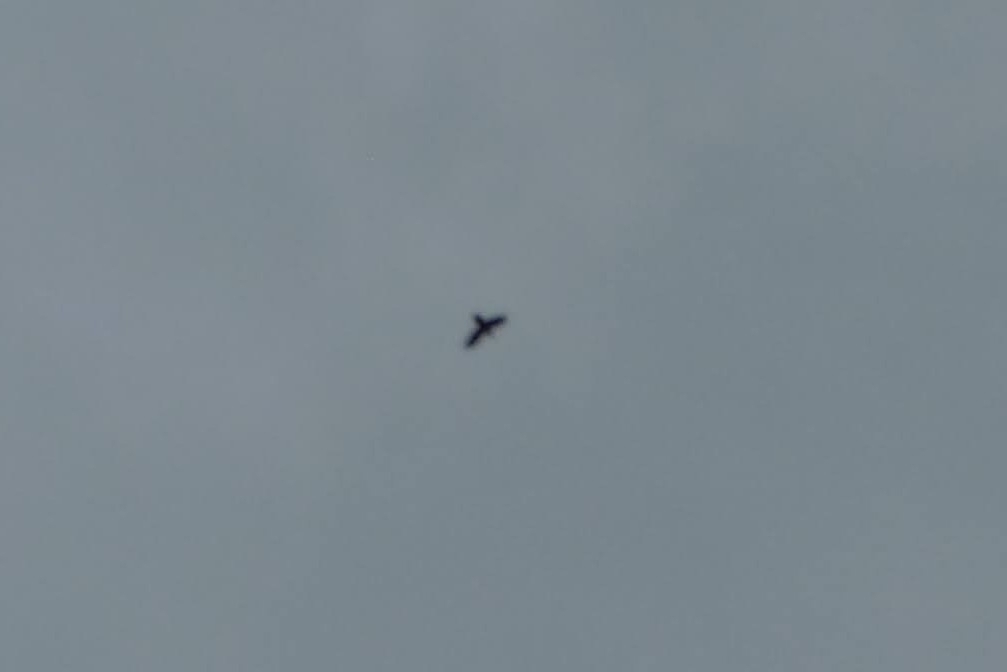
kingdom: Animalia
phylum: Chordata
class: Aves
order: Passeriformes
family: Corvidae
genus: Corvus
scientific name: Corvus corax
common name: Common raven
